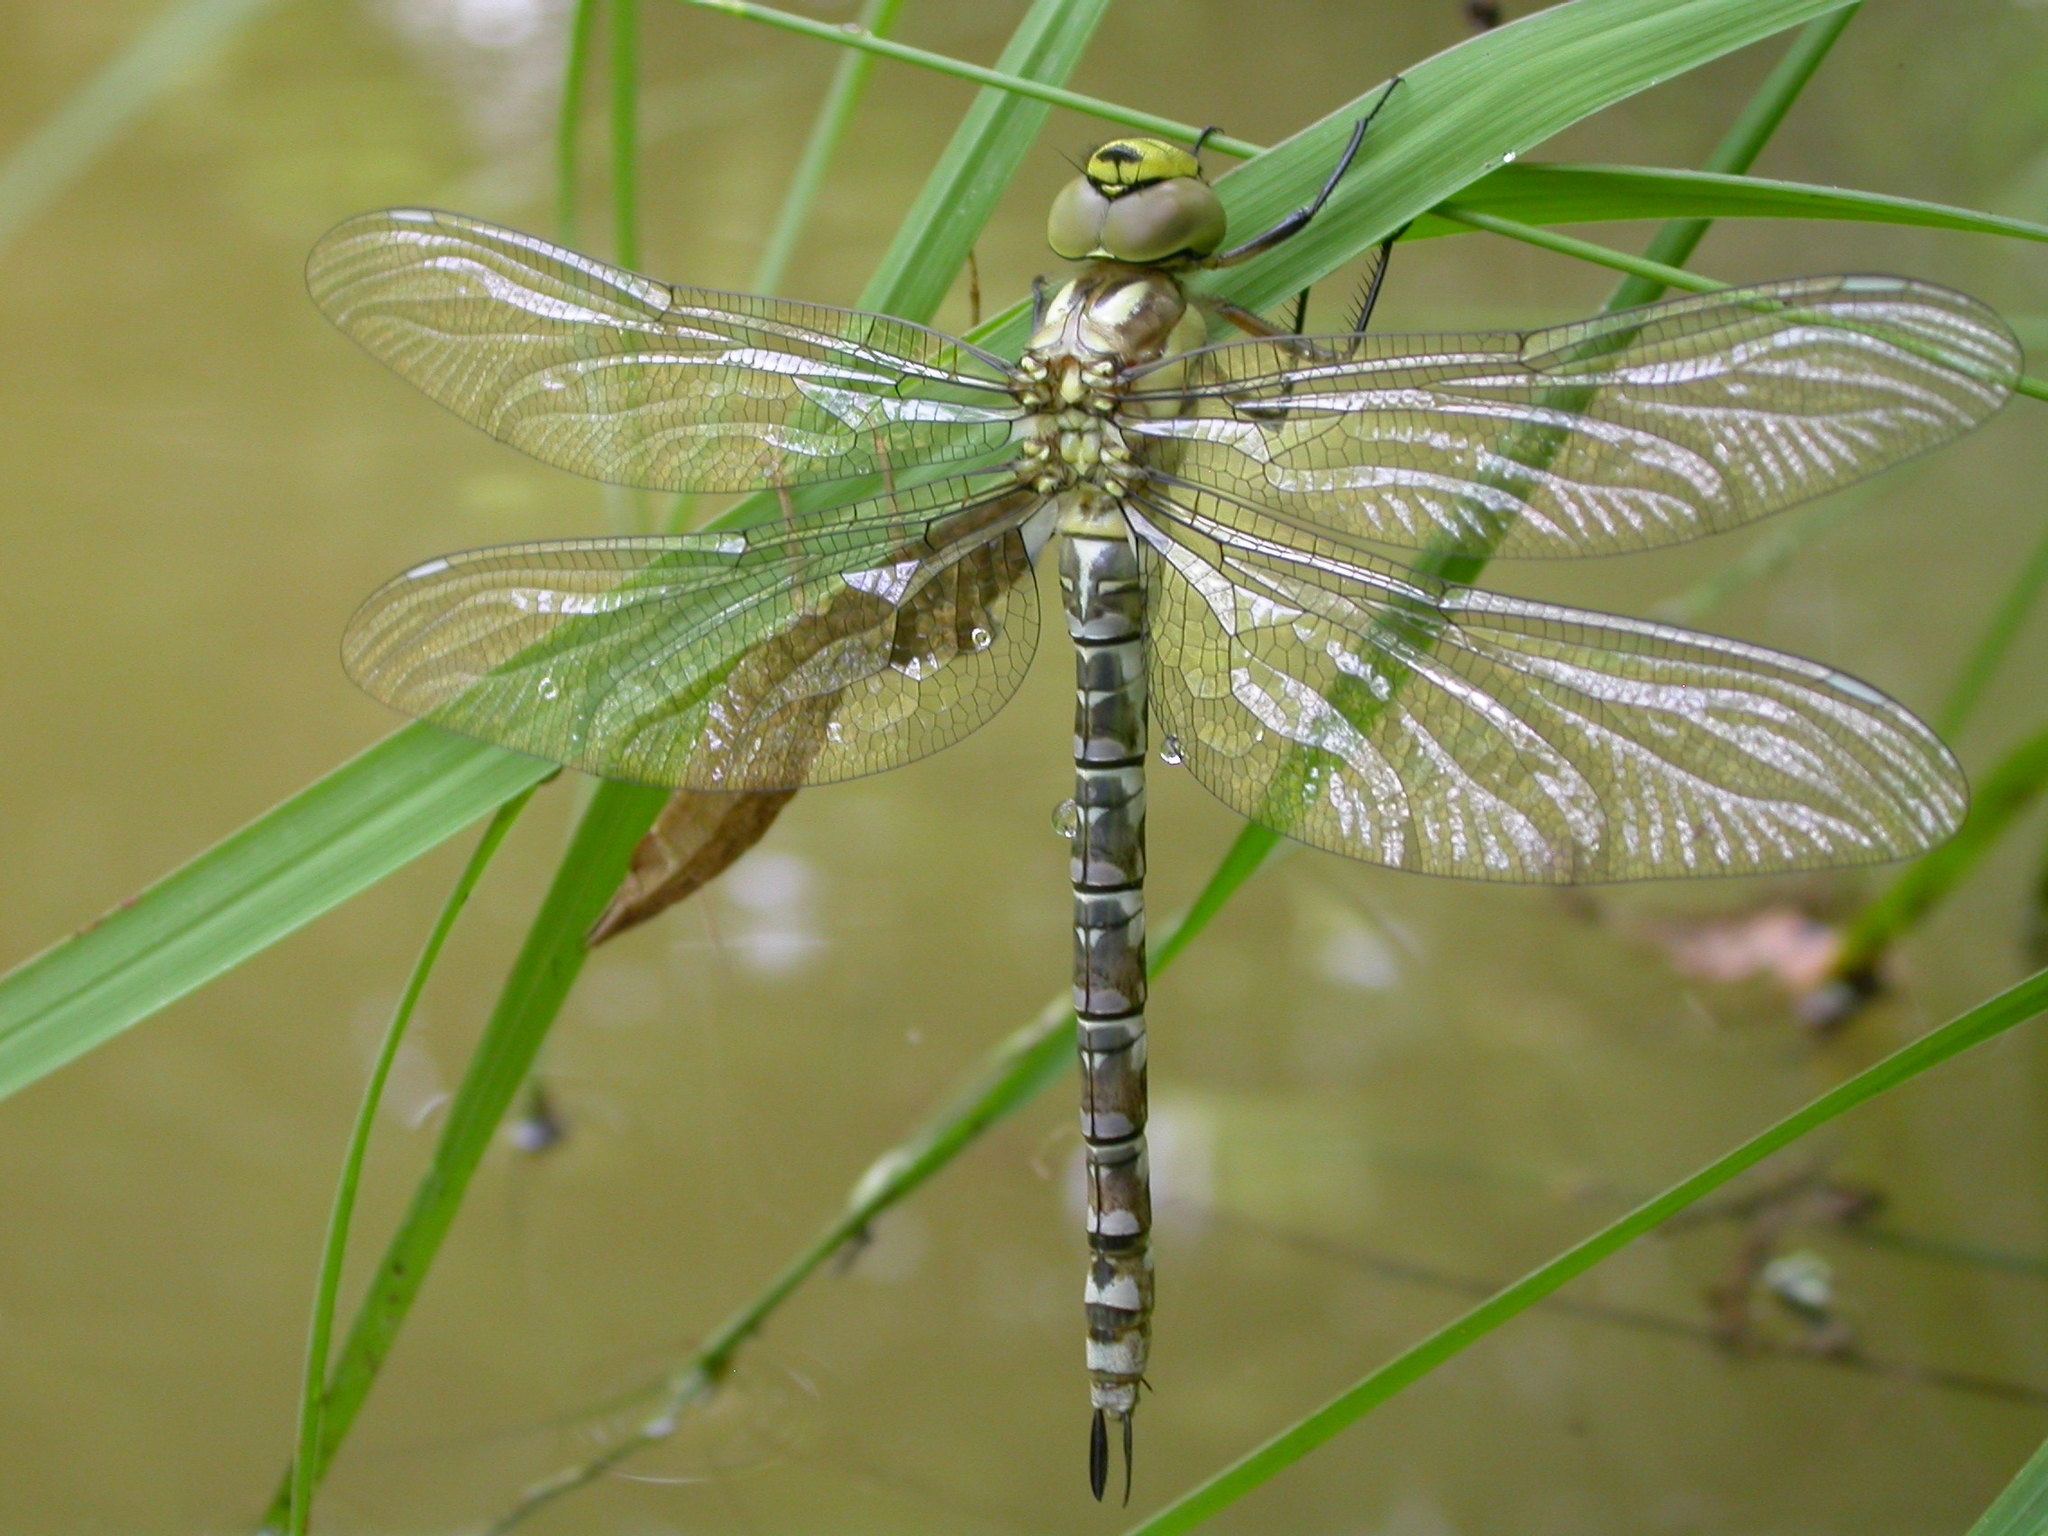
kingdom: Animalia
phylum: Arthropoda
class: Insecta
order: Odonata
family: Aeshnidae
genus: Aeshna
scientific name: Aeshna cyanea
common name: Southern hawker
